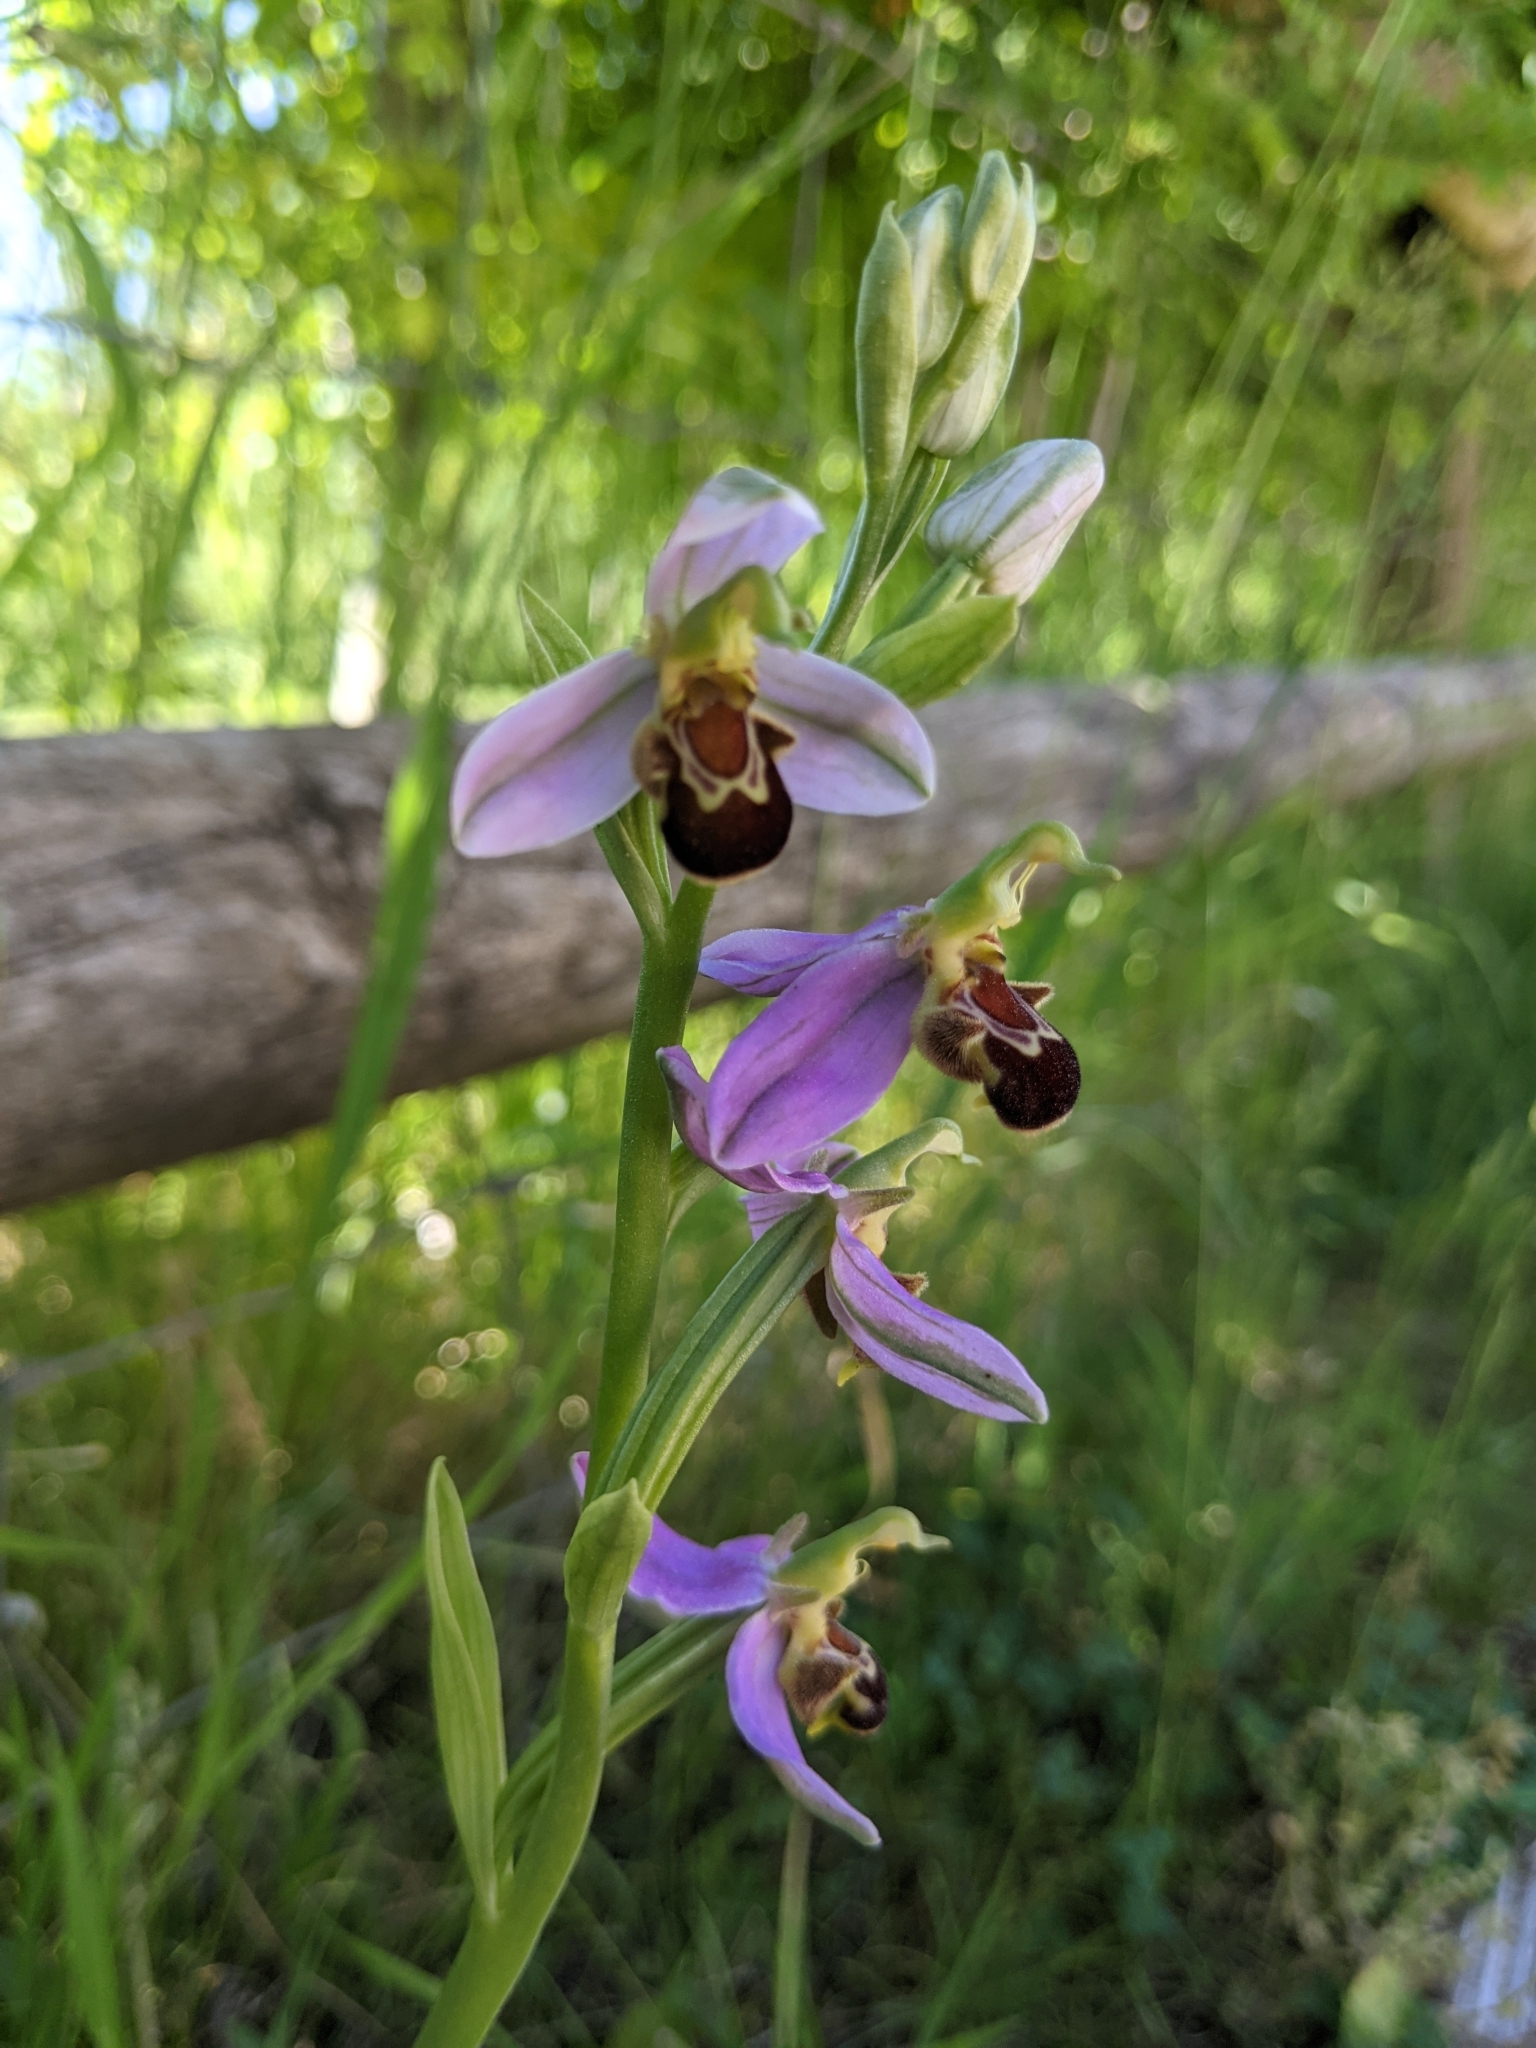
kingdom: Plantae
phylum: Tracheophyta
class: Liliopsida
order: Asparagales
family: Orchidaceae
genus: Ophrys
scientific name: Ophrys apifera
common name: Bee orchid
